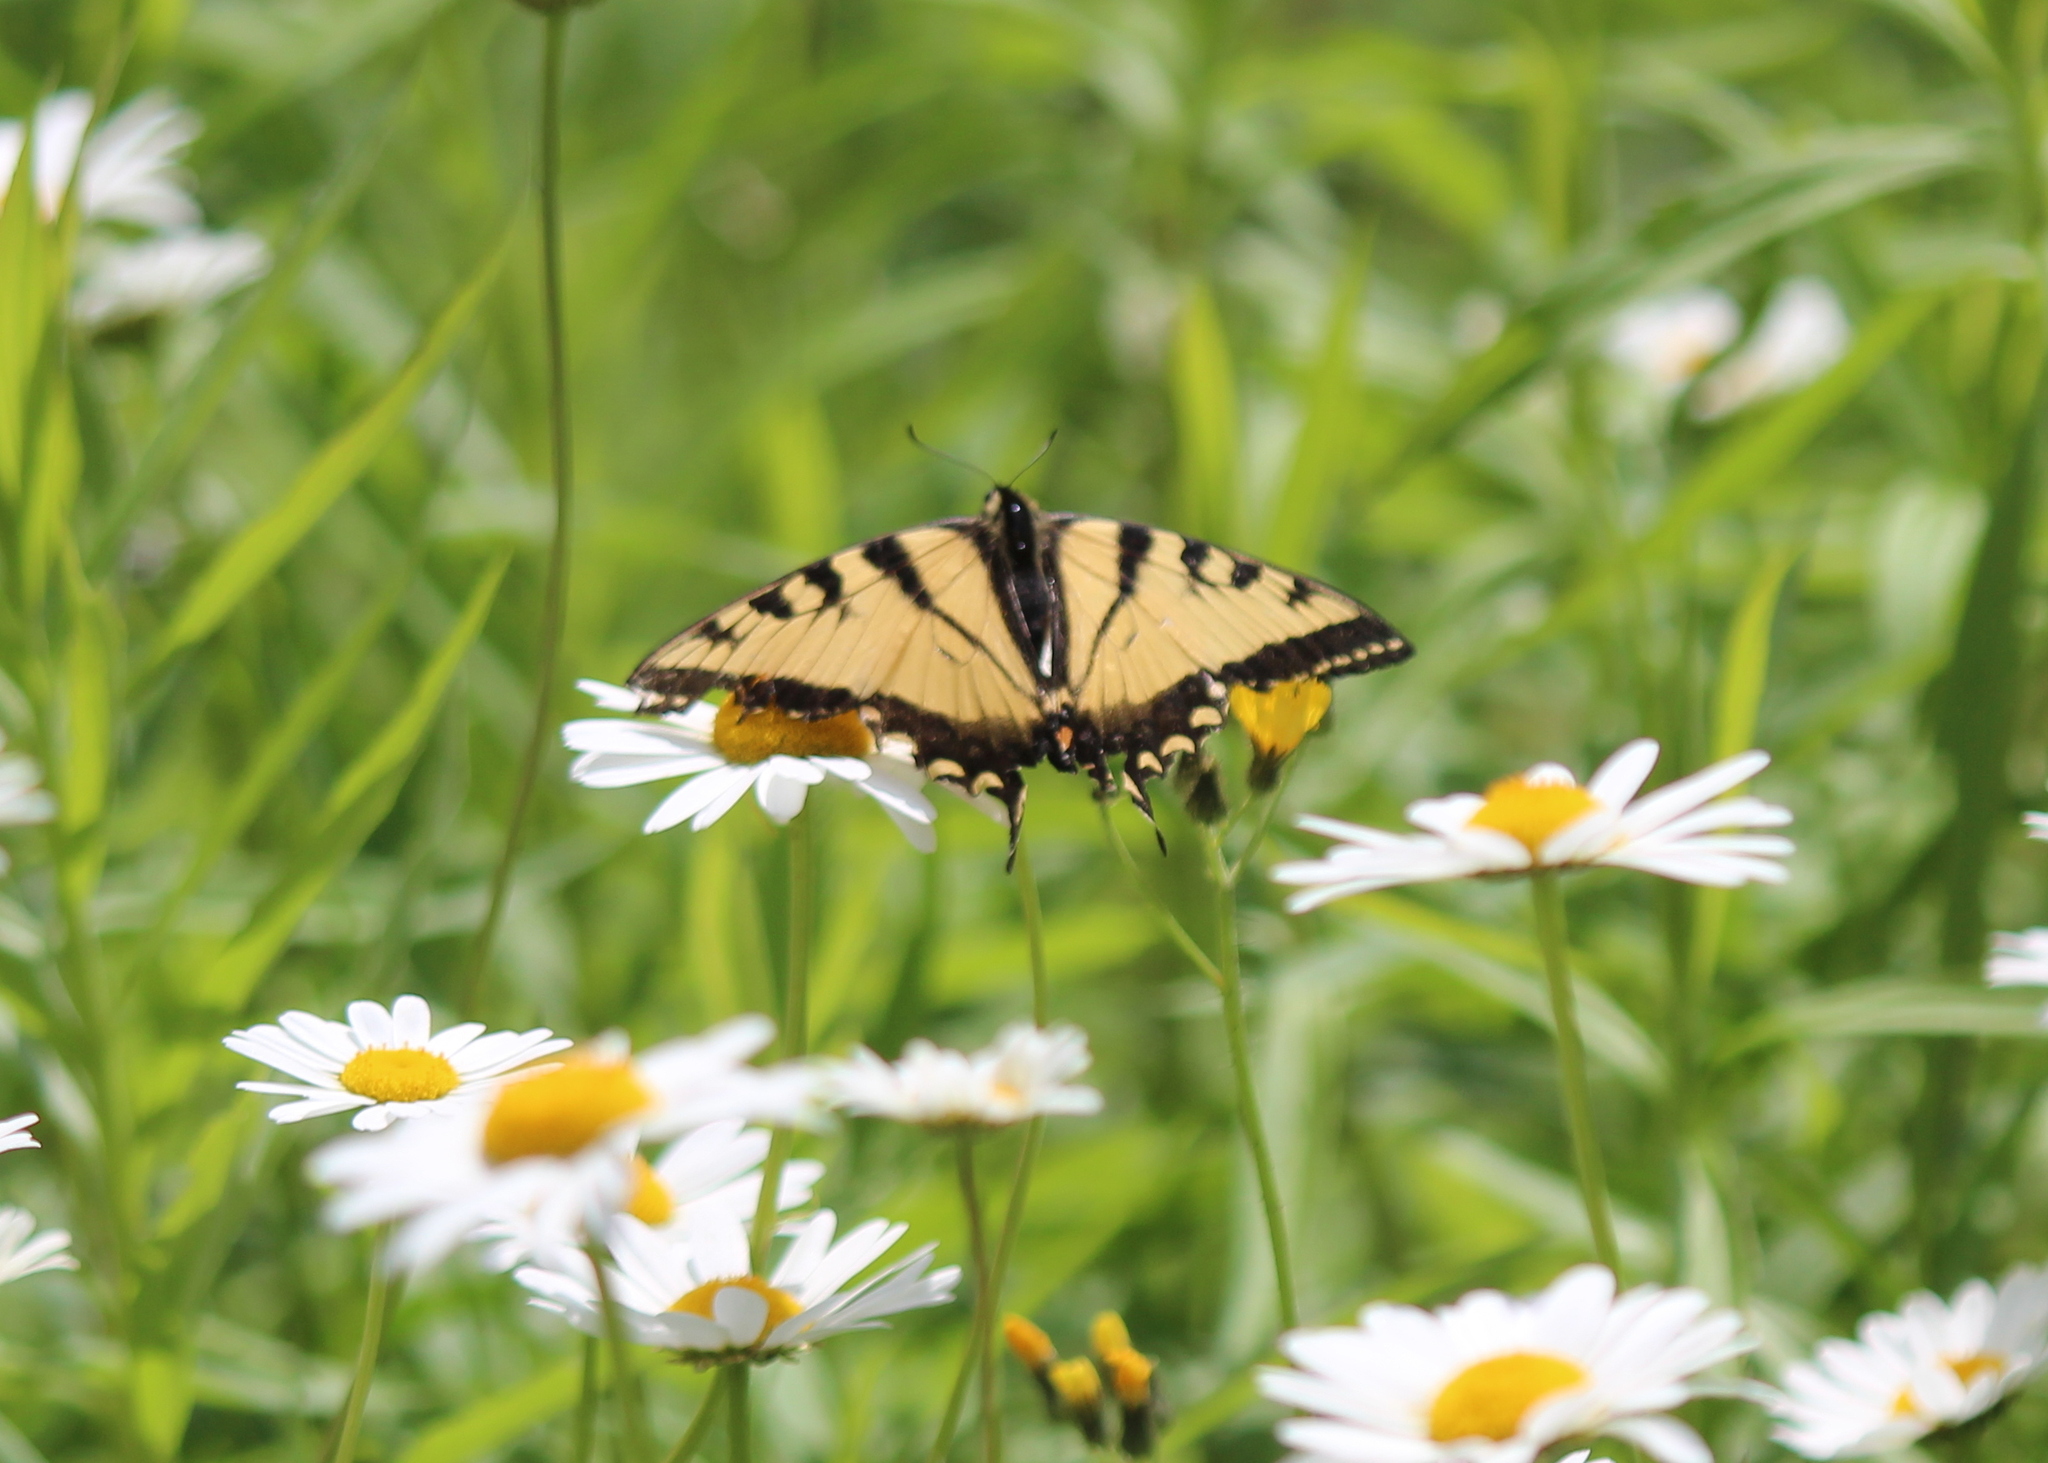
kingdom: Animalia
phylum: Arthropoda
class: Insecta
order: Lepidoptera
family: Papilionidae
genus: Papilio
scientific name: Papilio canadensis
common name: Canadian tiger swallowtail
